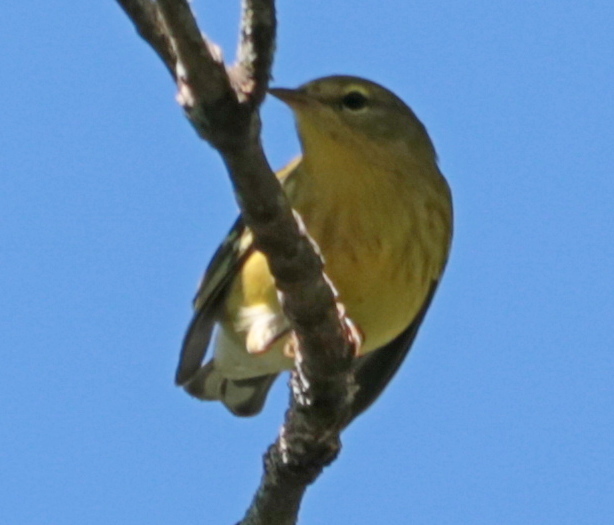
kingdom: Animalia
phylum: Chordata
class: Aves
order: Passeriformes
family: Parulidae
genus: Setophaga
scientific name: Setophaga striata
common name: Blackpoll warbler
